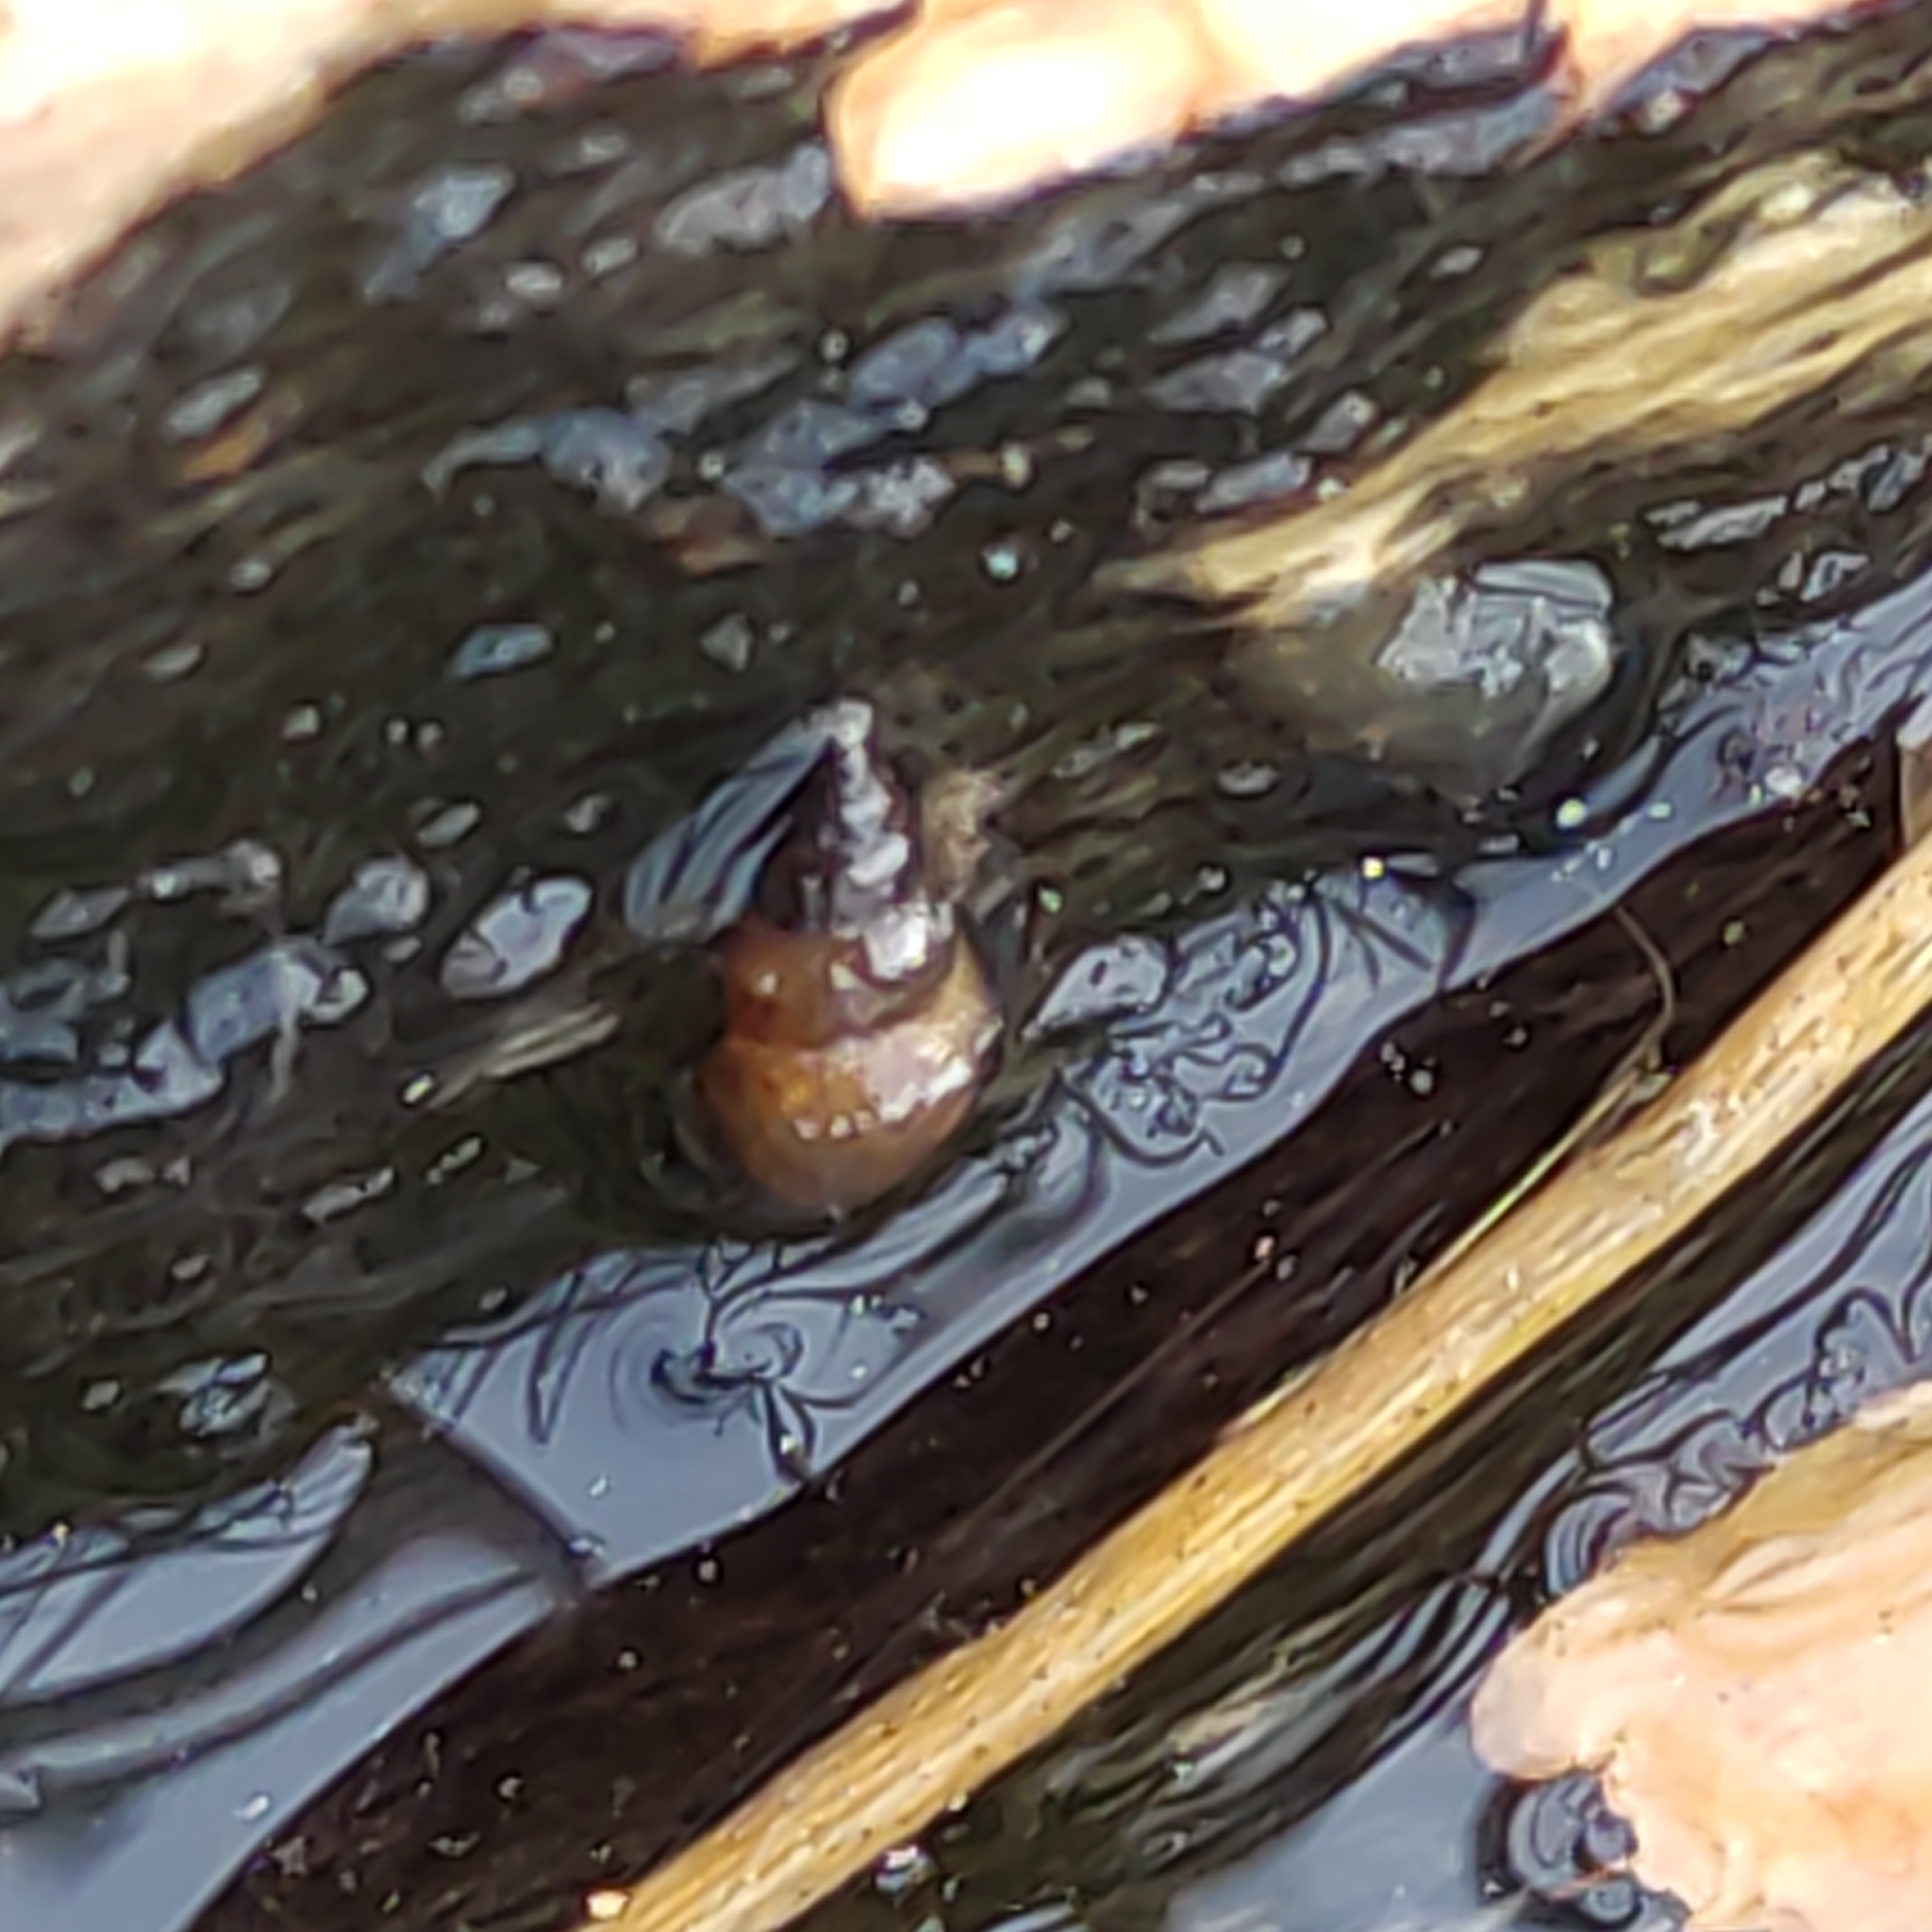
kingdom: Animalia
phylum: Mollusca
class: Gastropoda
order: Littorinimorpha
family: Tateidae
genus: Potamopyrgus
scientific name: Potamopyrgus antipodarum
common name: Jenkins' spire snail
